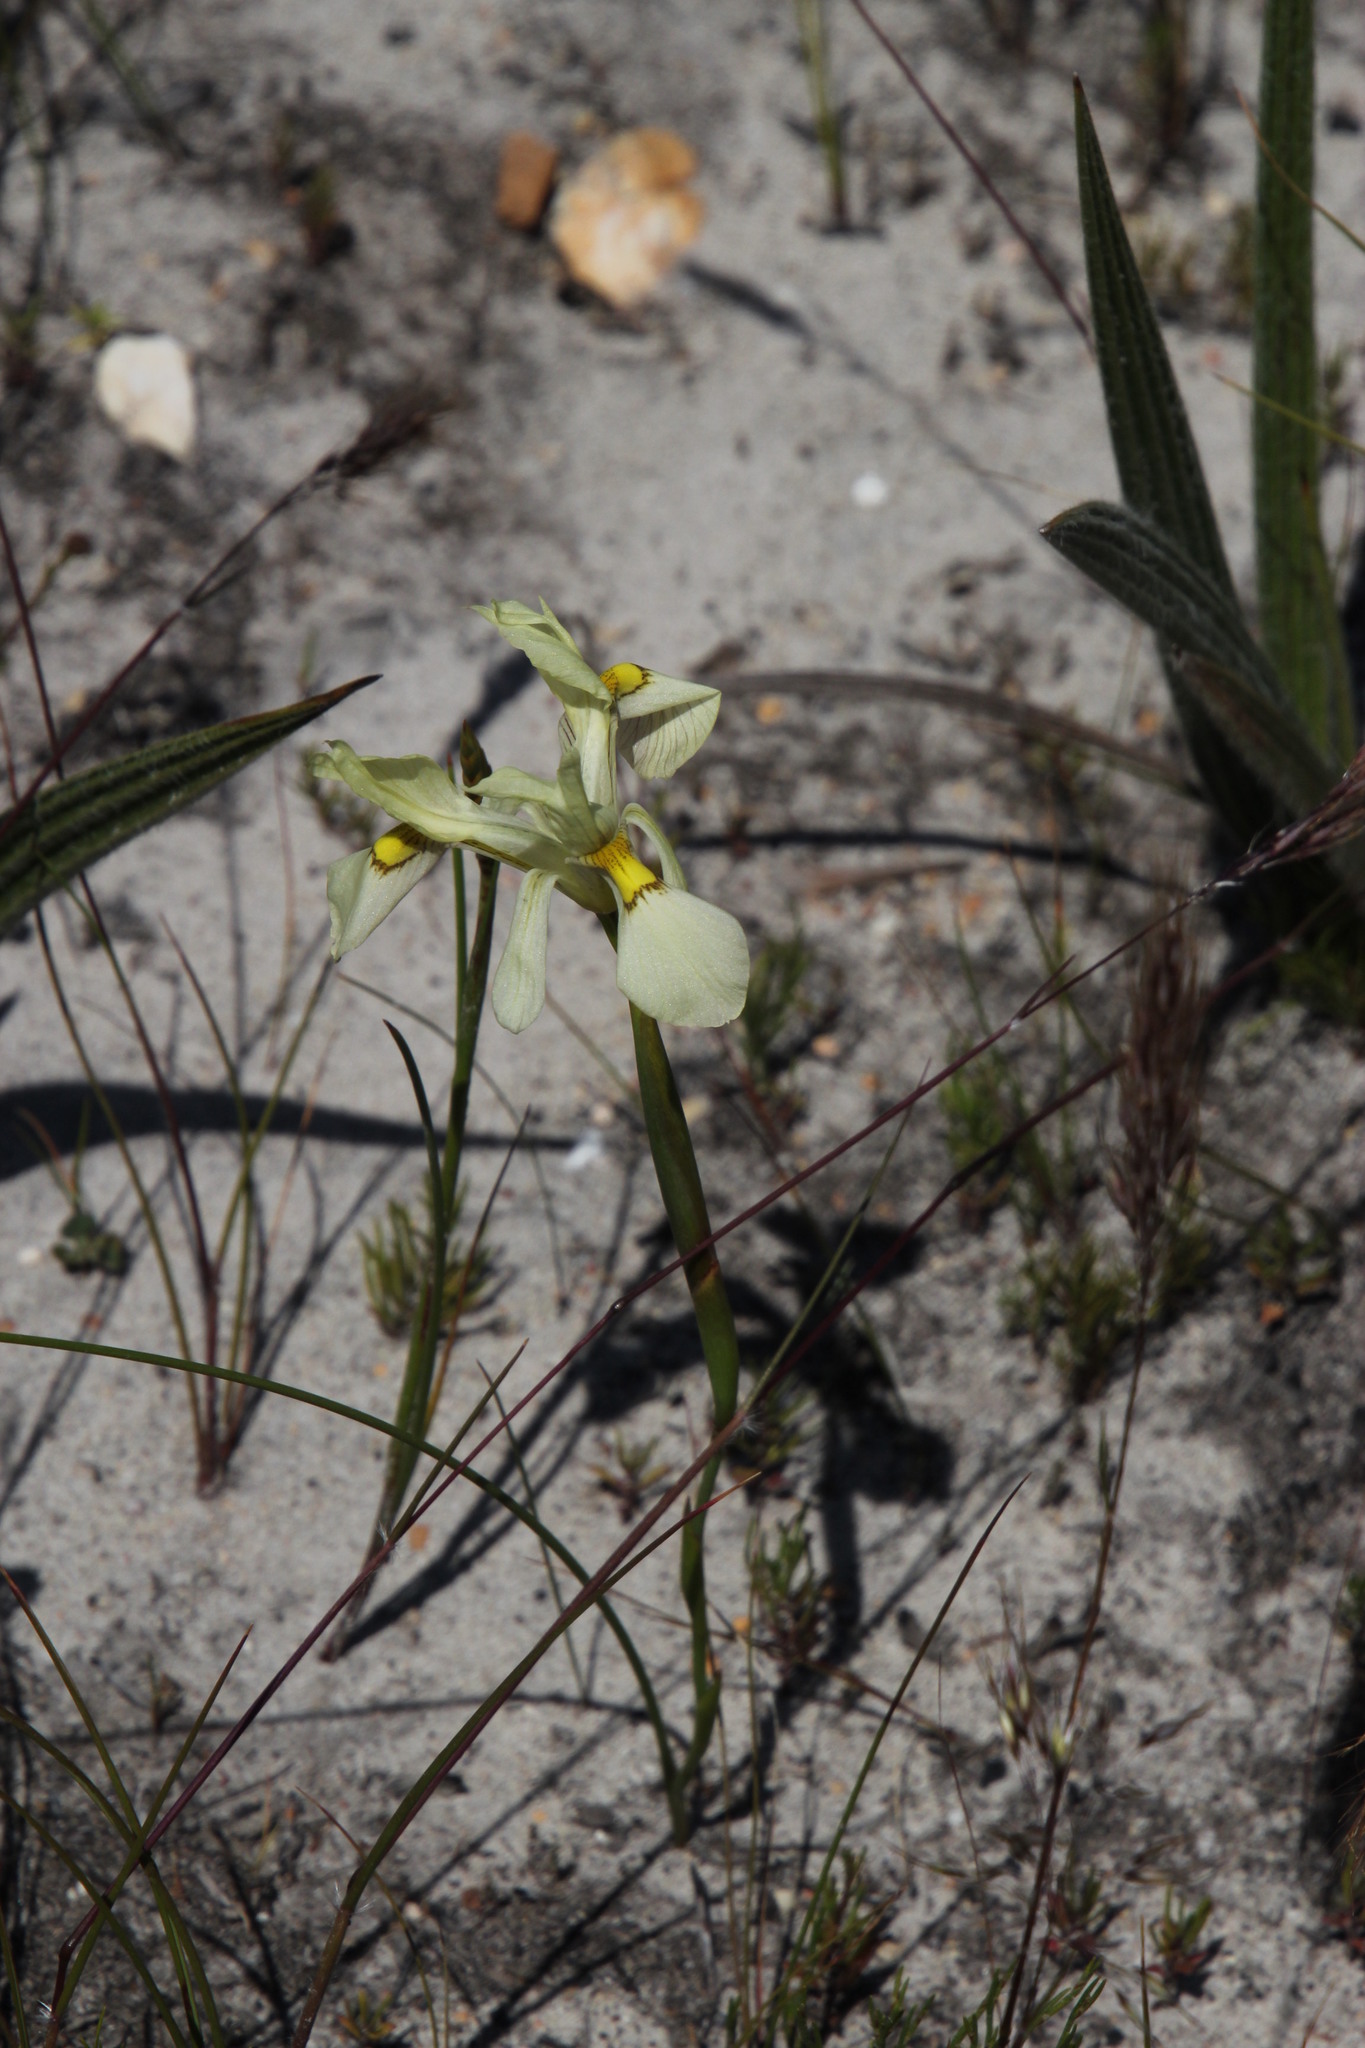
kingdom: Plantae
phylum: Tracheophyta
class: Liliopsida
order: Asparagales
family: Iridaceae
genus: Moraea
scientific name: Moraea angusta
